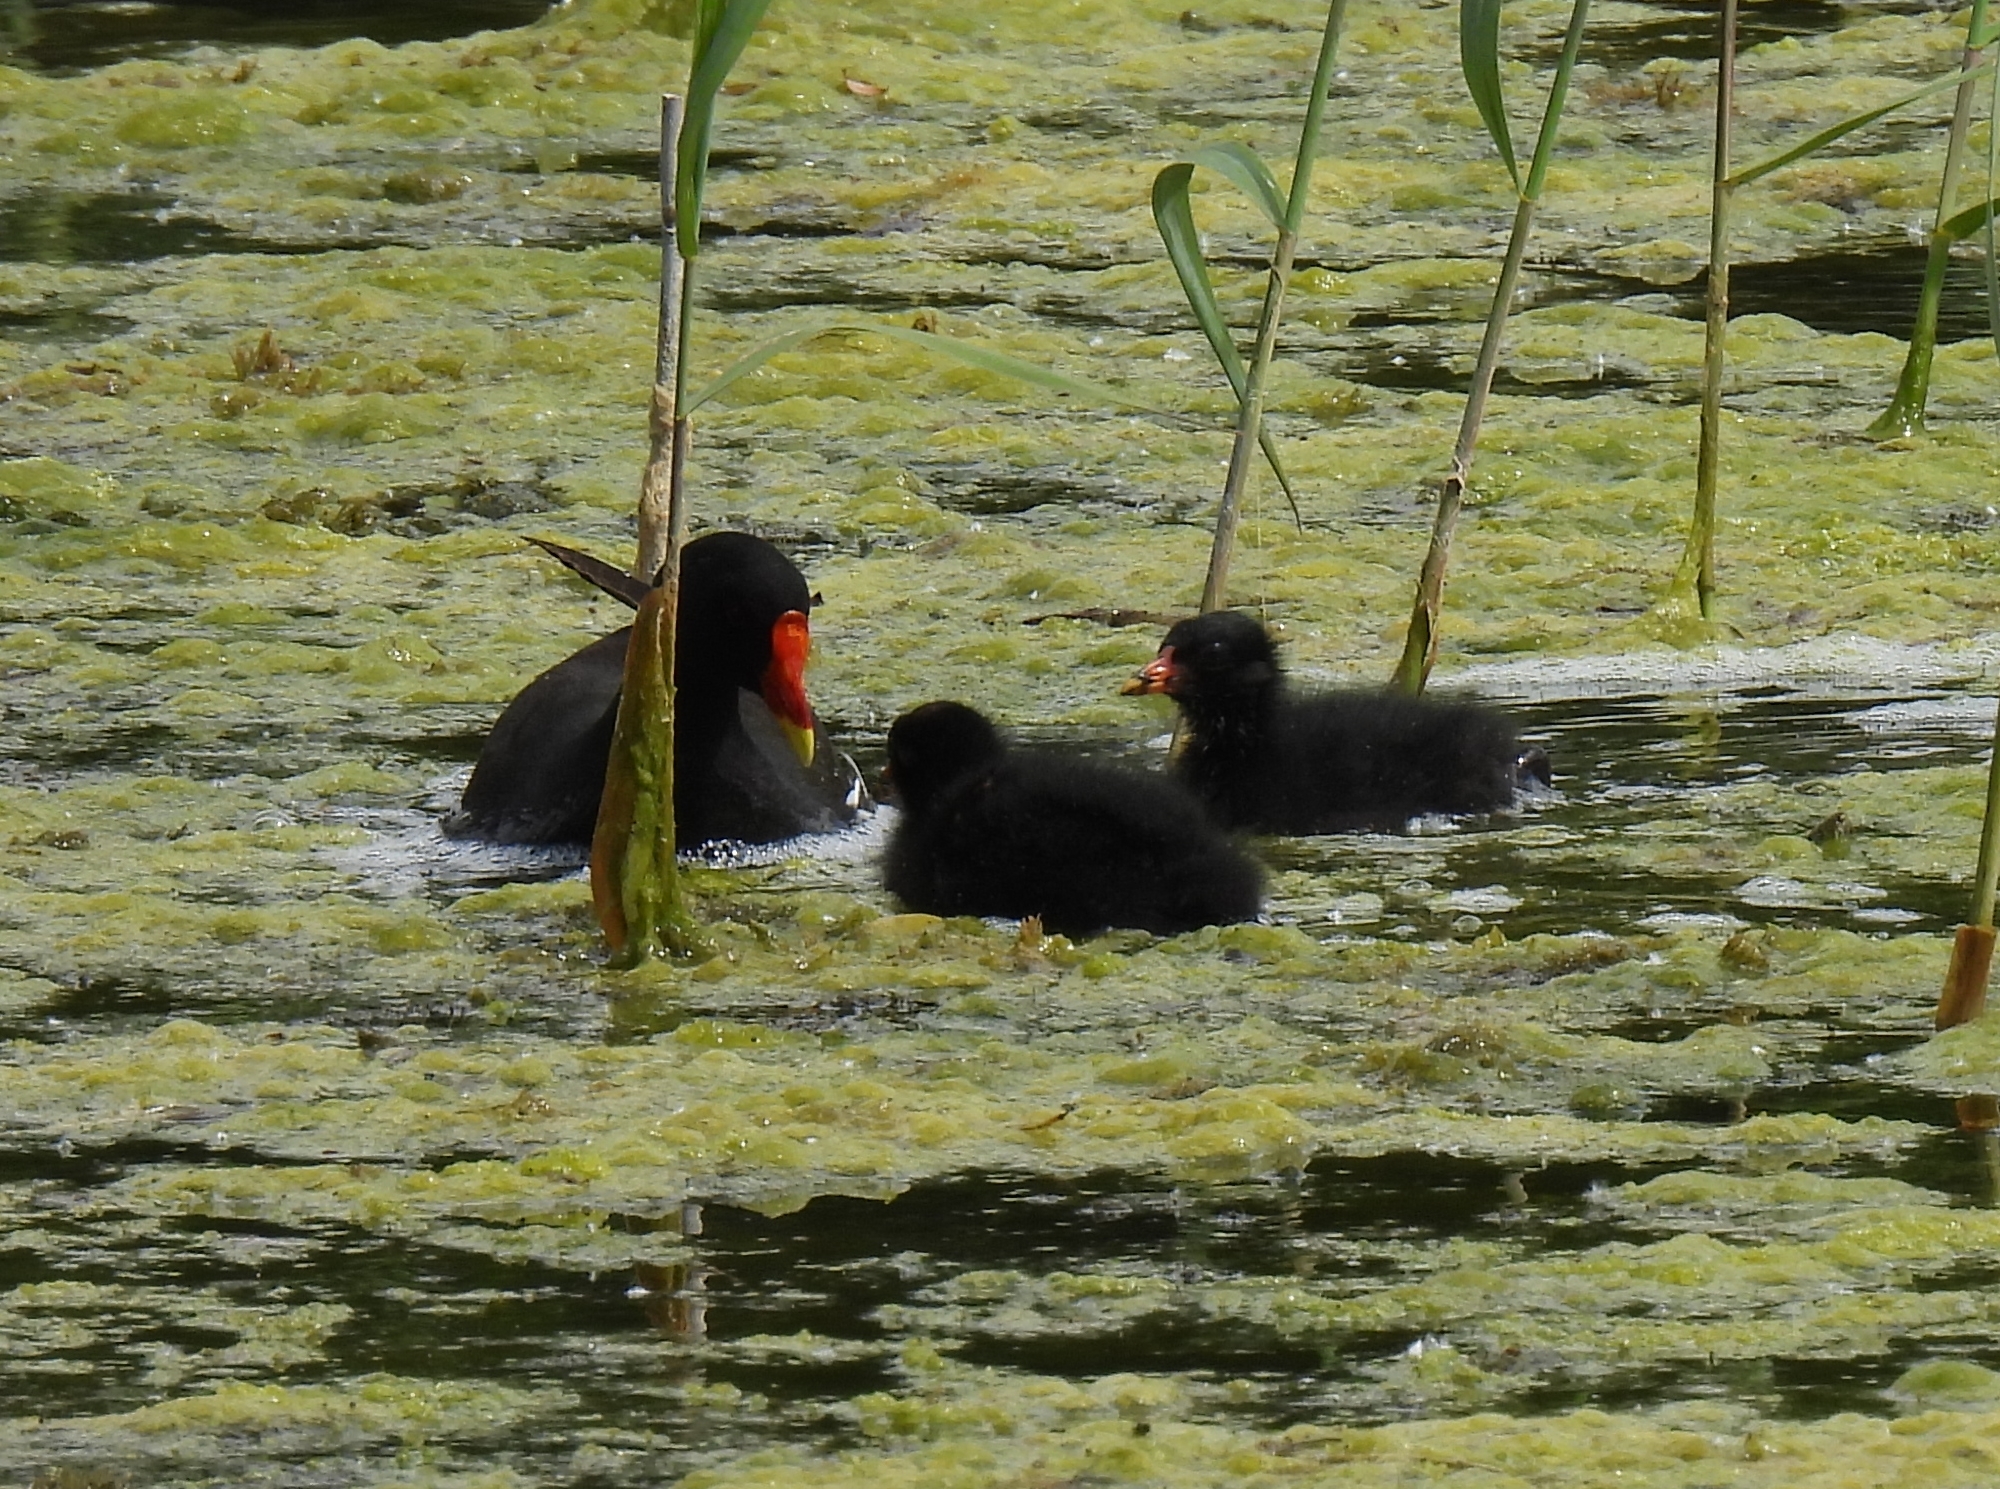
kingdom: Animalia
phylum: Chordata
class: Aves
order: Gruiformes
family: Rallidae
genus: Gallinula
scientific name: Gallinula chloropus
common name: Common moorhen
